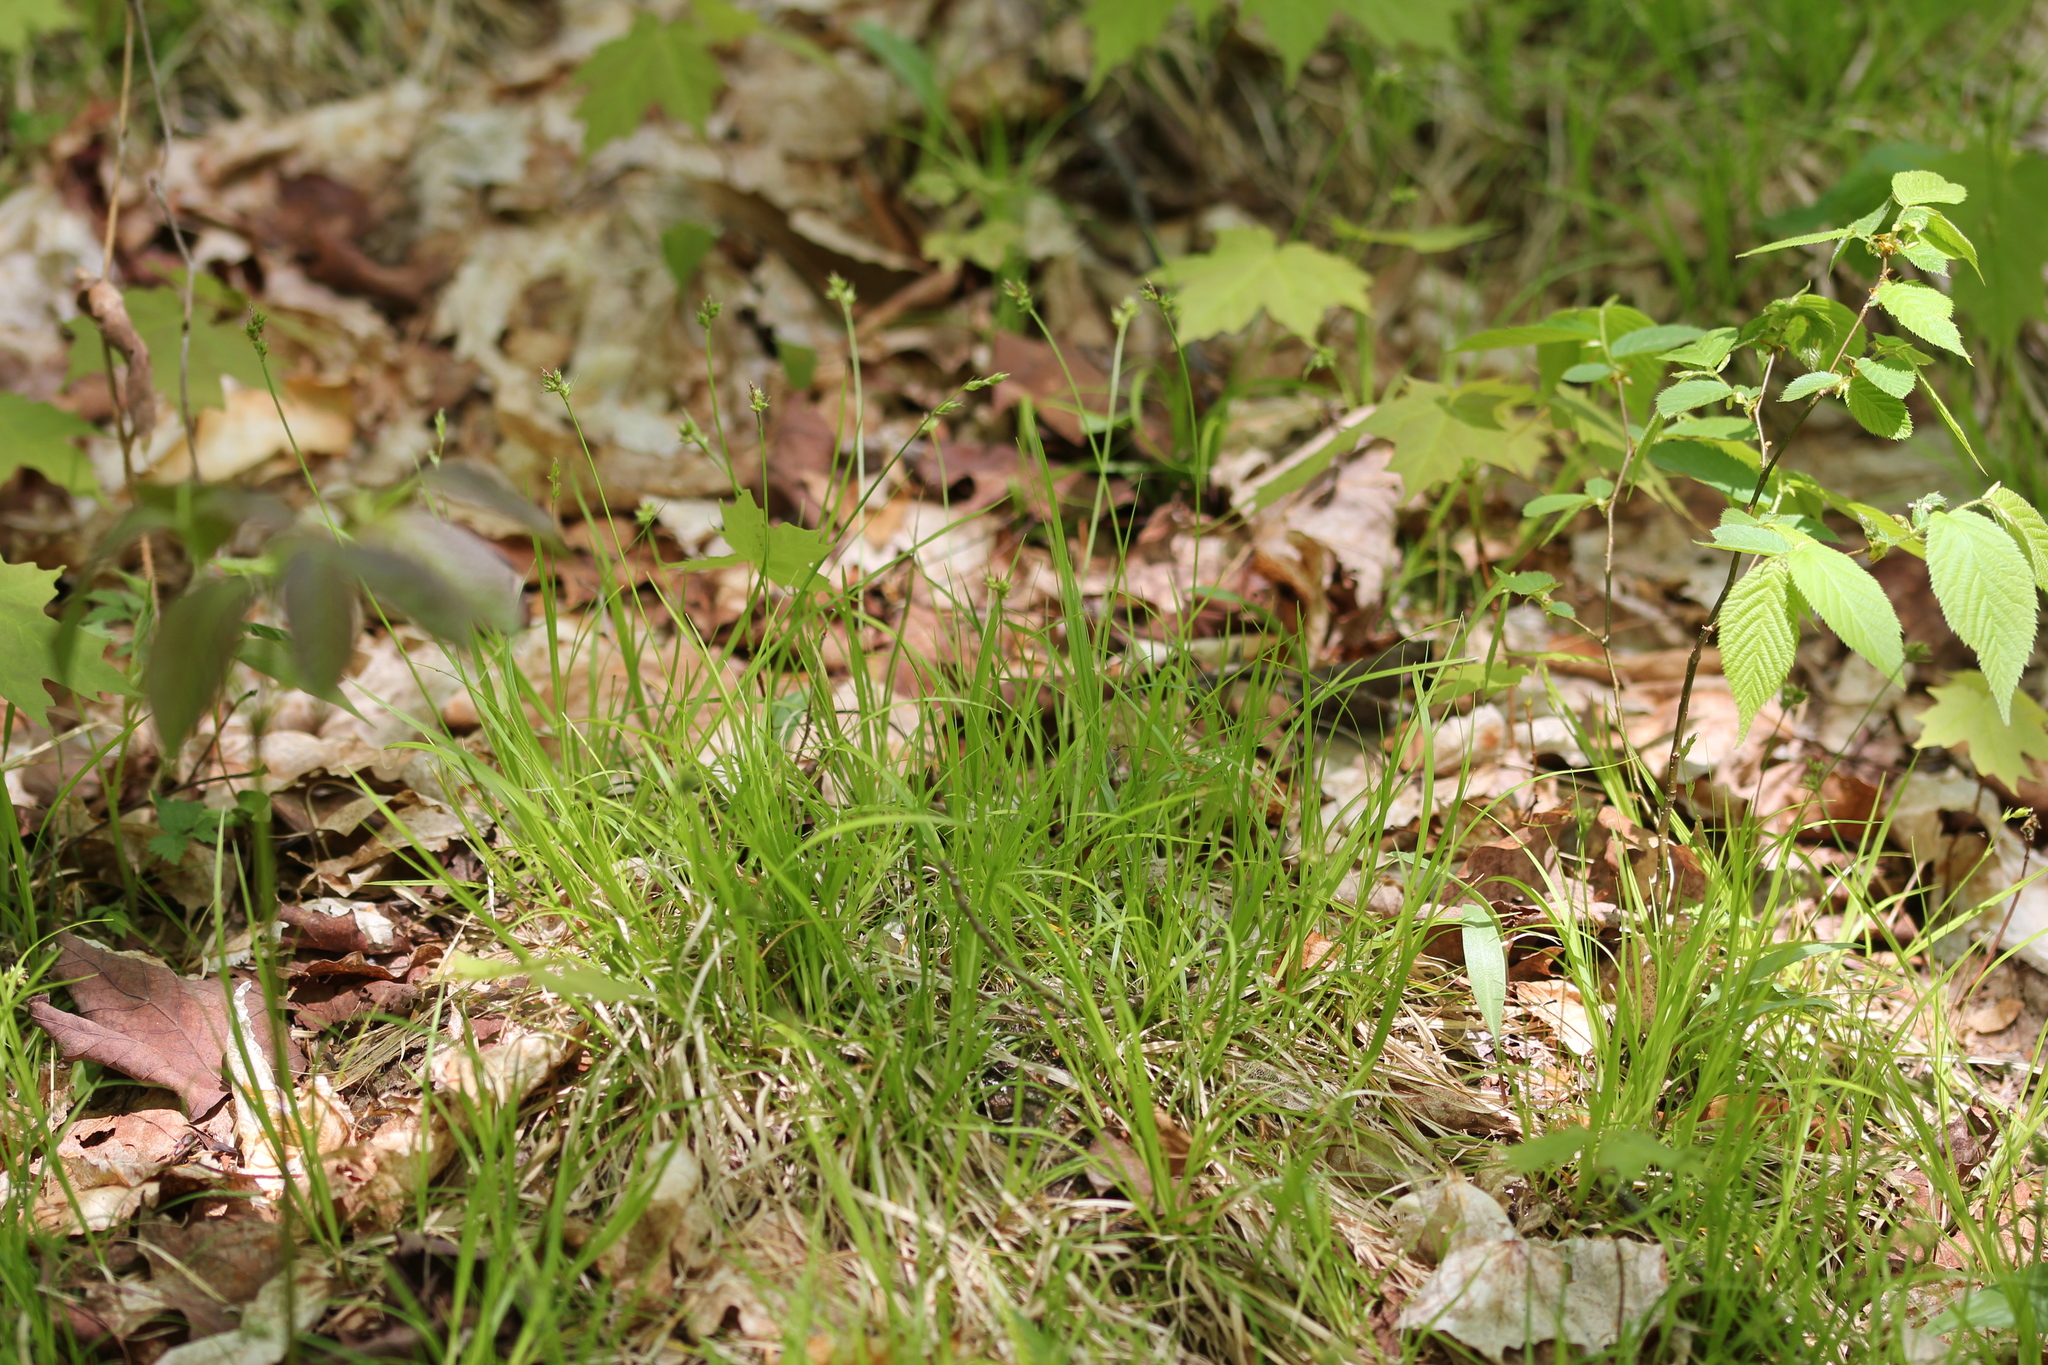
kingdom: Plantae
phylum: Tracheophyta
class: Liliopsida
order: Poales
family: Cyperaceae
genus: Carex
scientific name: Carex peckii
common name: Peck's oak sedge
